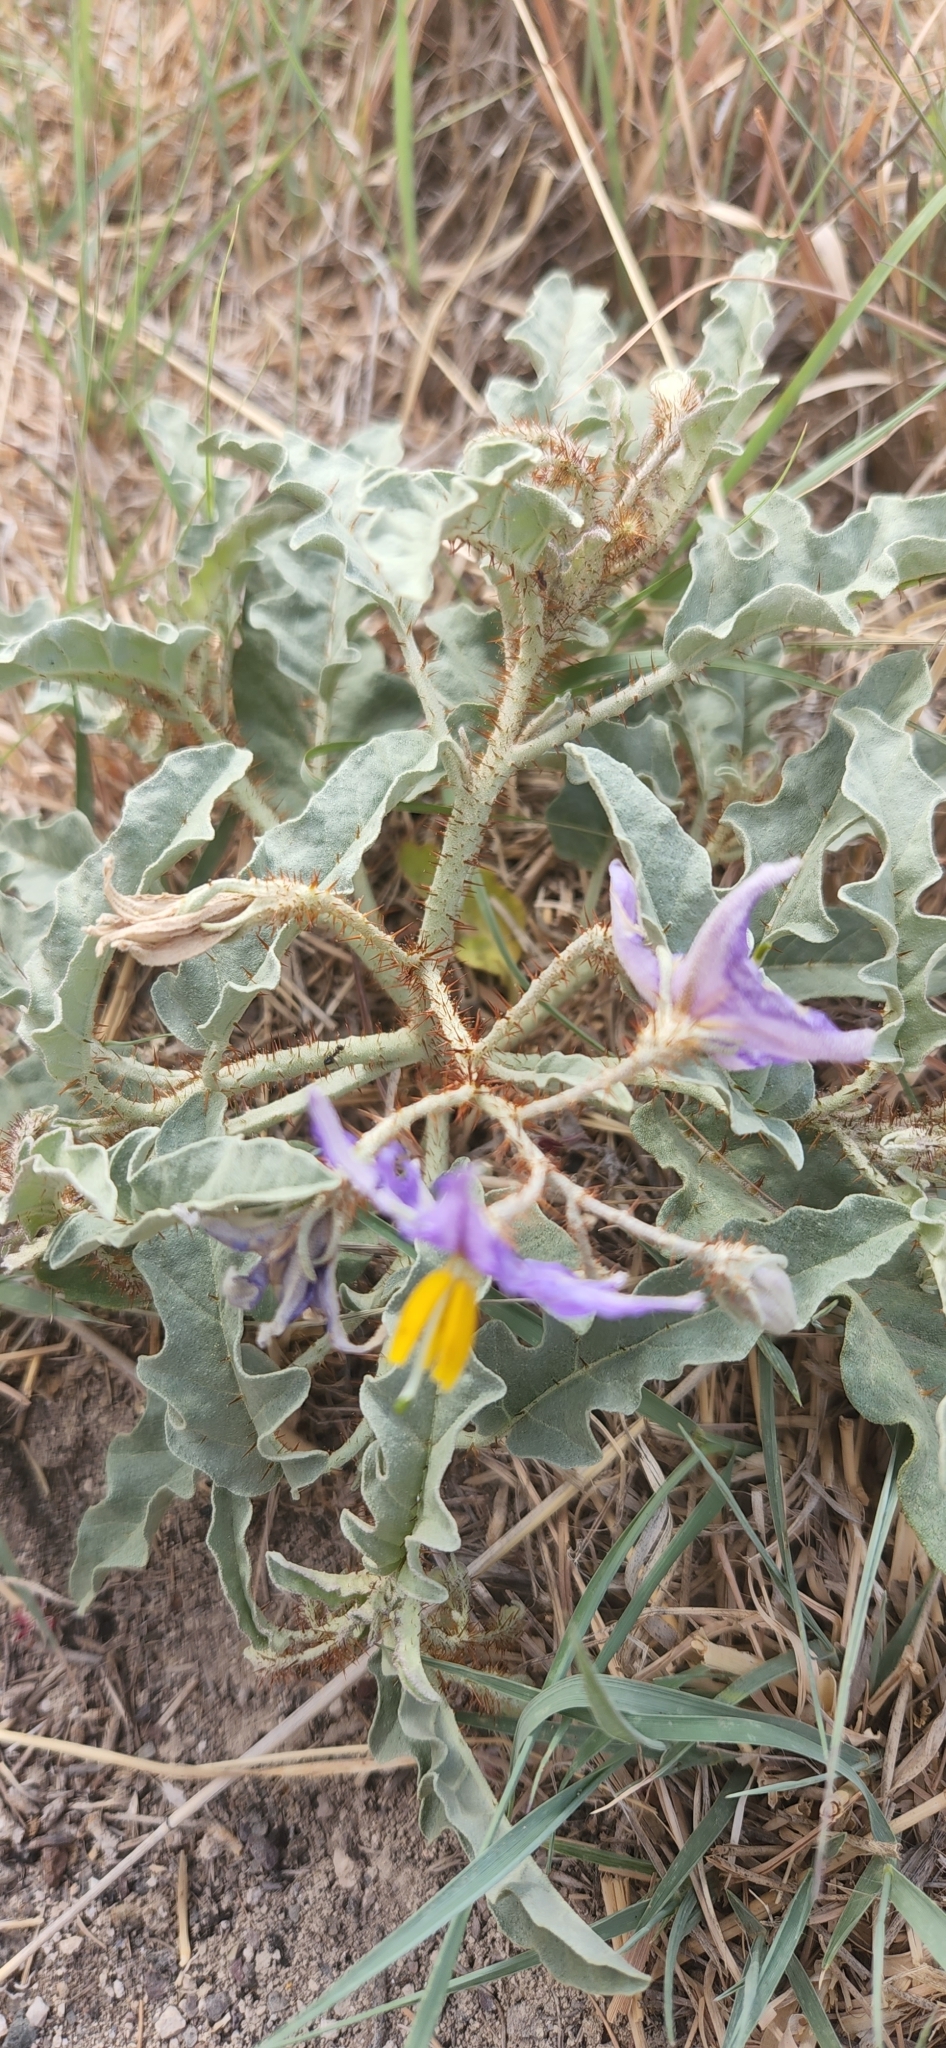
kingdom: Plantae
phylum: Tracheophyta
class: Magnoliopsida
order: Solanales
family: Solanaceae
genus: Solanum
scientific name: Solanum elaeagnifolium
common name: Silverleaf nightshade
